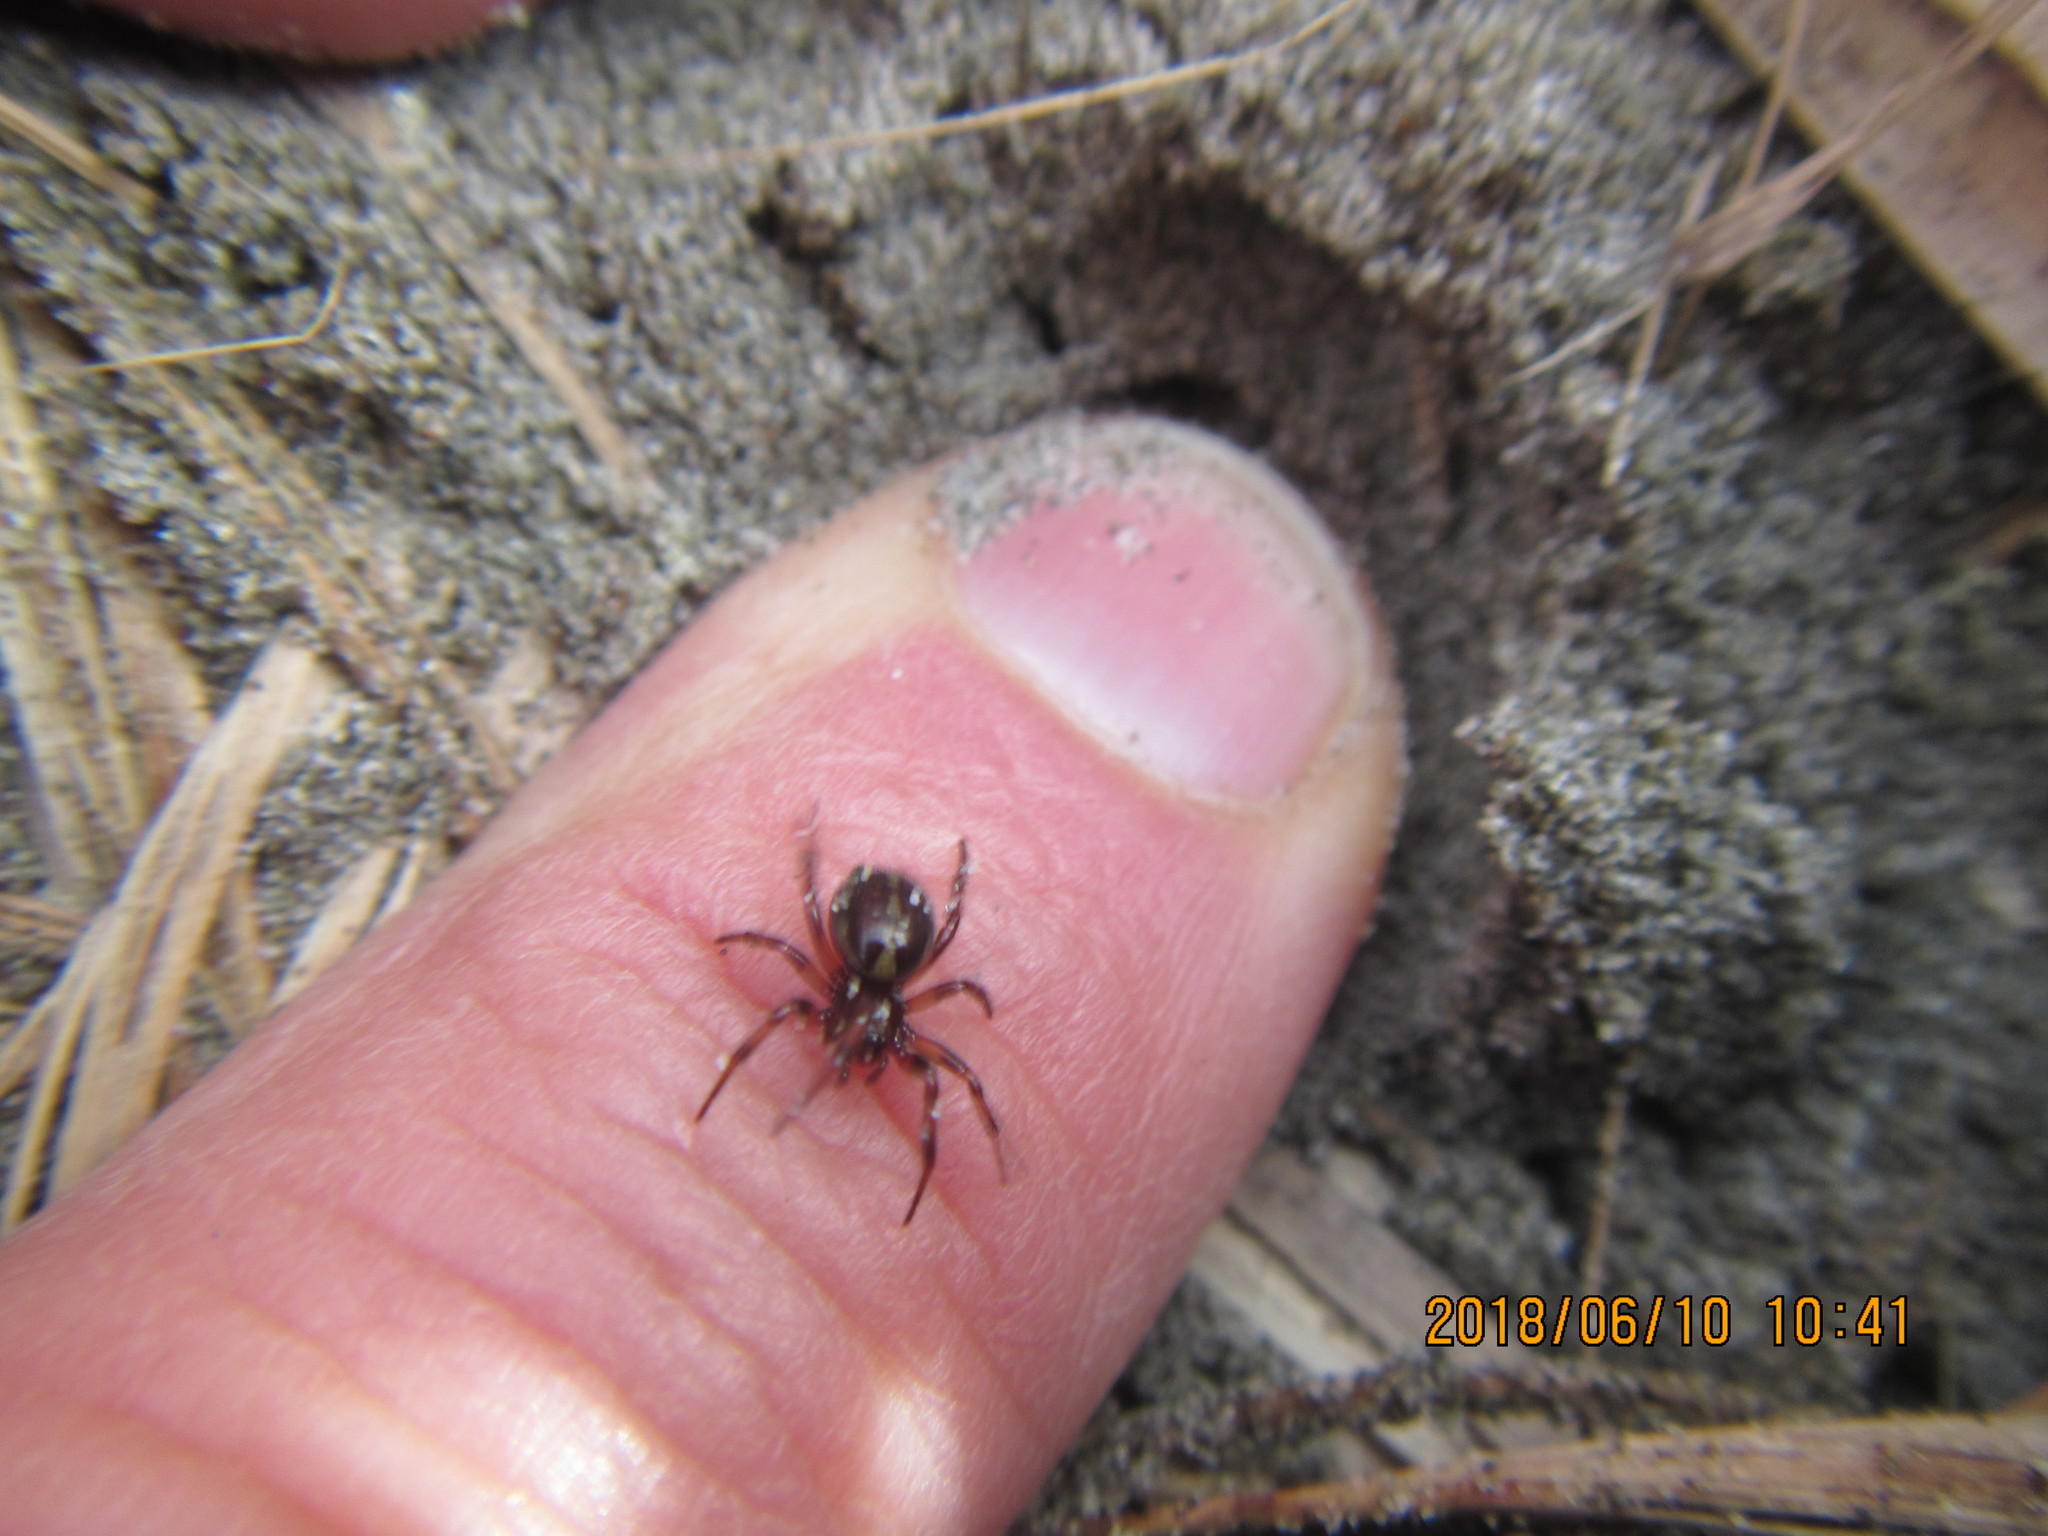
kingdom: Animalia
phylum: Arthropoda
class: Arachnida
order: Araneae
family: Theridiidae
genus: Steatoda
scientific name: Steatoda lepida
